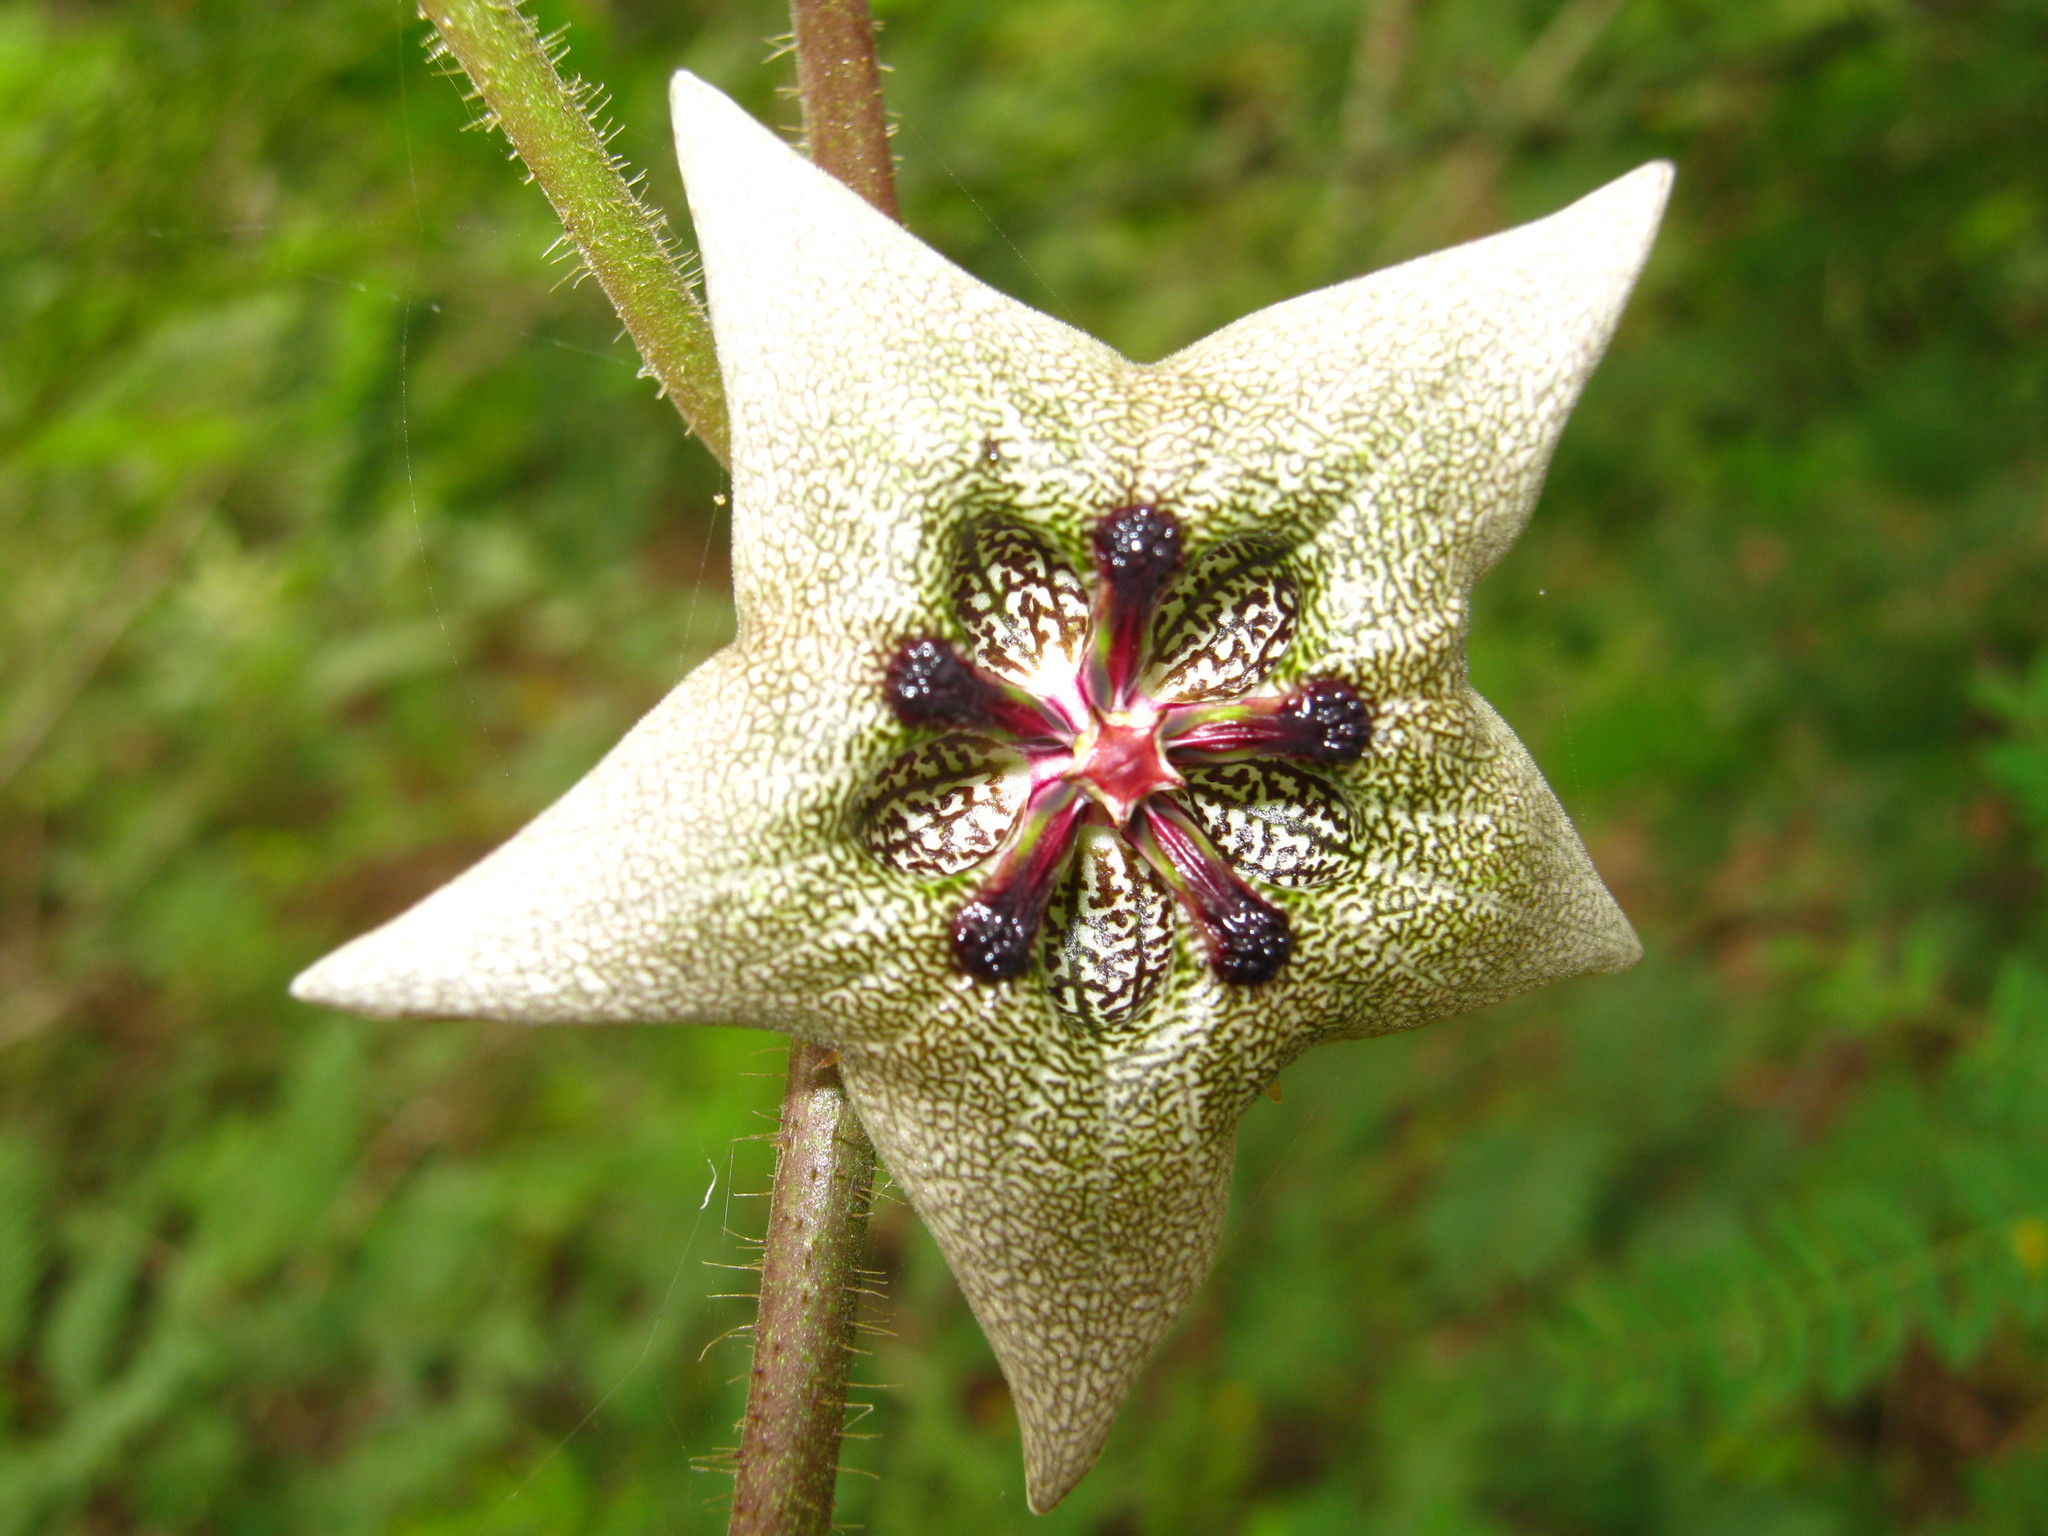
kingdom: Plantae
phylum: Tracheophyta
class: Magnoliopsida
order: Gentianales
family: Apocynaceae
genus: Dictyanthus
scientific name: Dictyanthus yucatanensis
